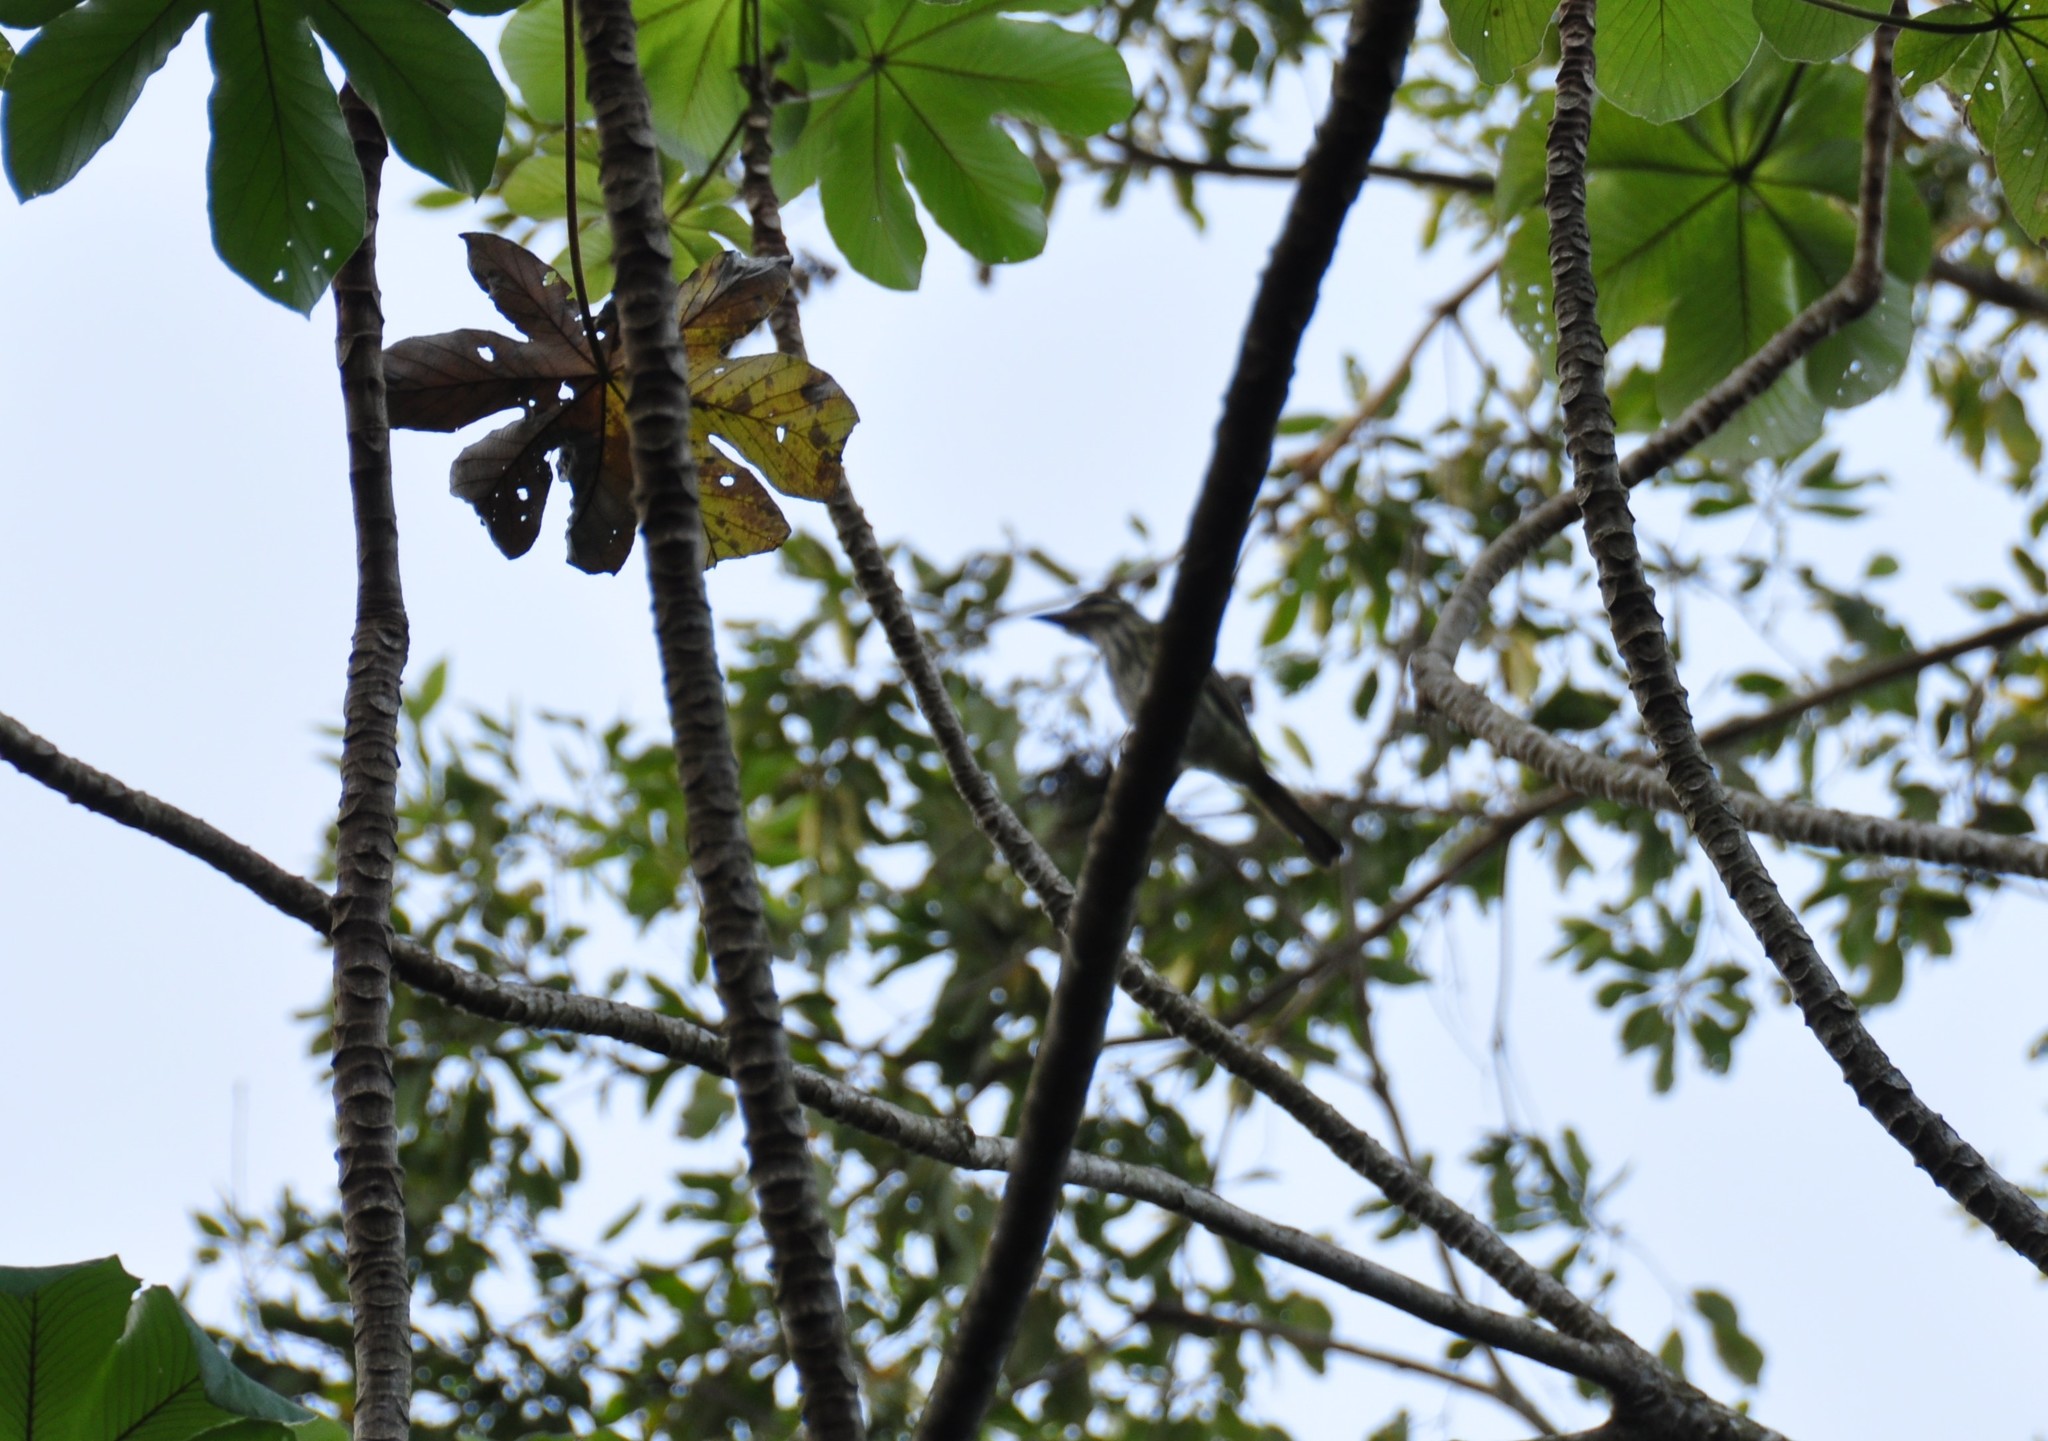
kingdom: Animalia
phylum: Chordata
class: Aves
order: Passeriformes
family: Tyrannidae
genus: Myiodynastes
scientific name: Myiodynastes maculatus
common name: Streaked flycatcher
